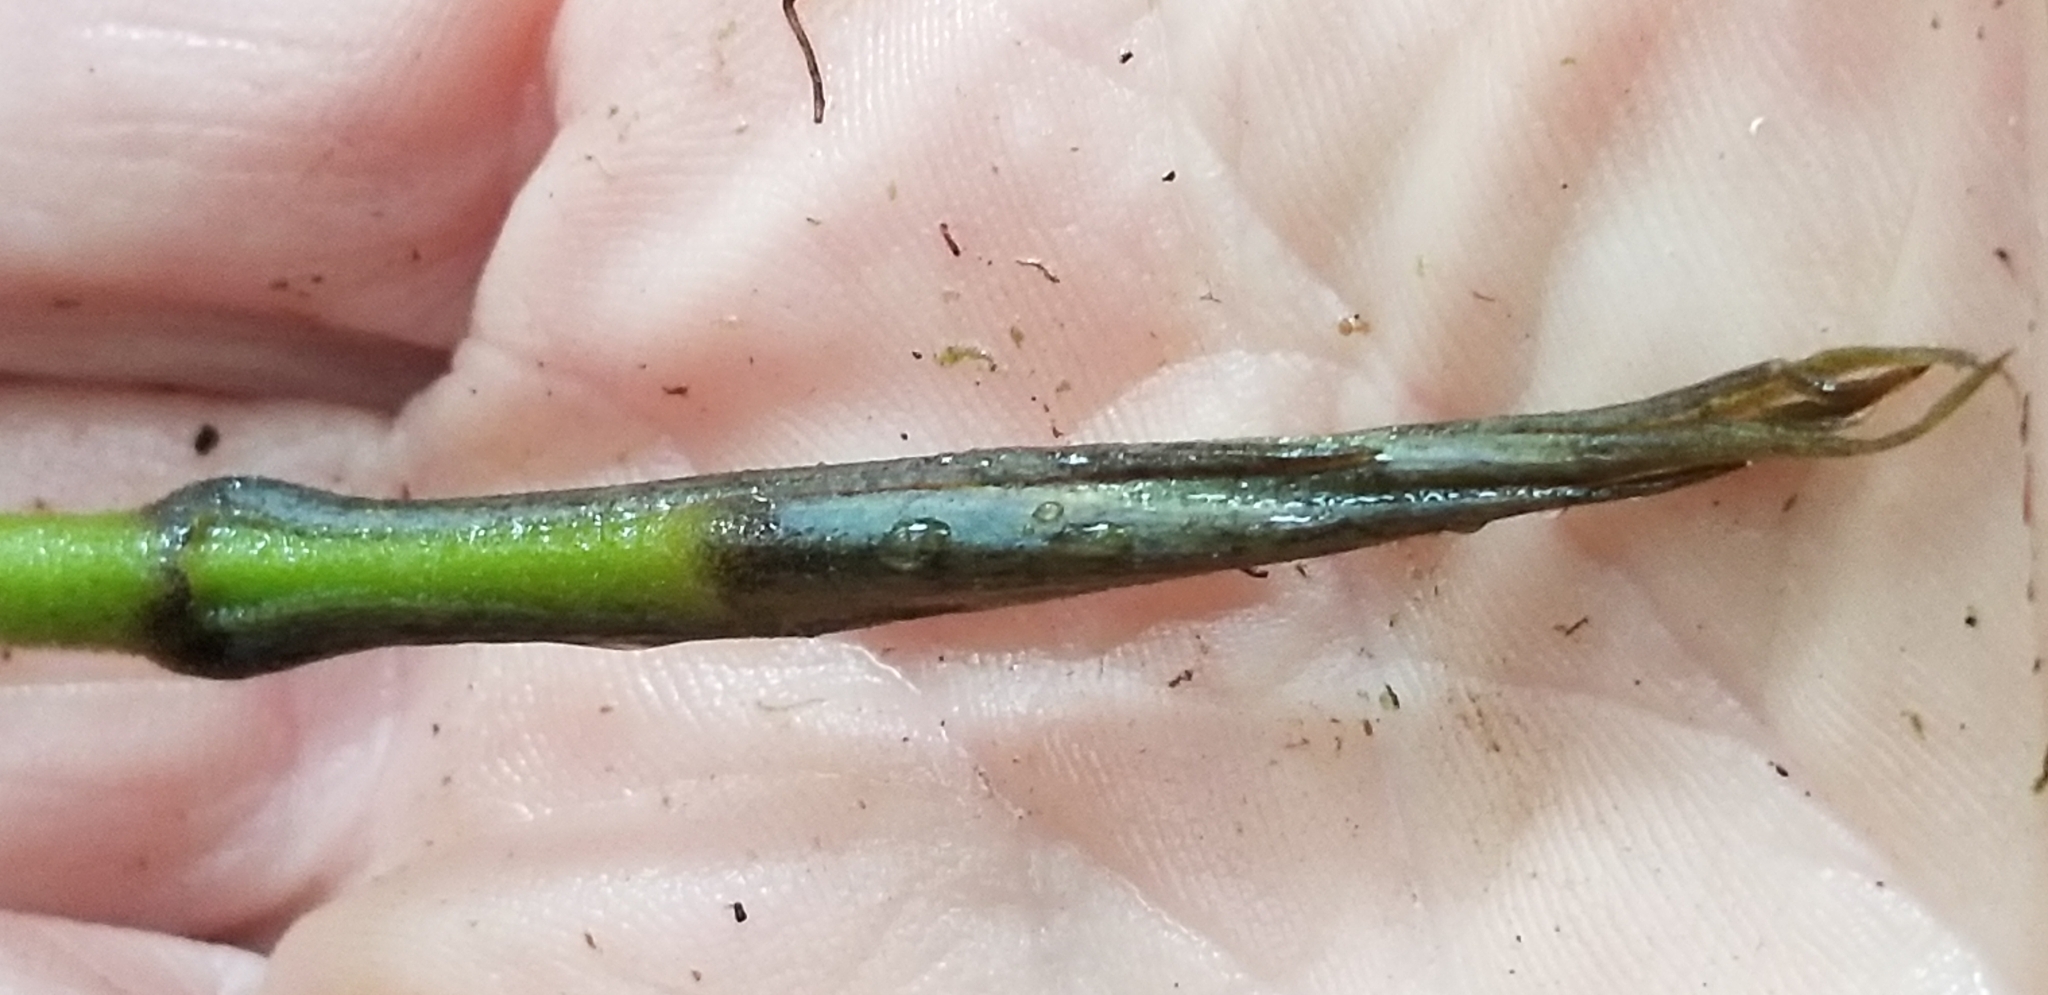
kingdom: Plantae
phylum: Tracheophyta
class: Liliopsida
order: Liliales
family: Ripogonaceae
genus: Ripogonum
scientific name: Ripogonum scandens
